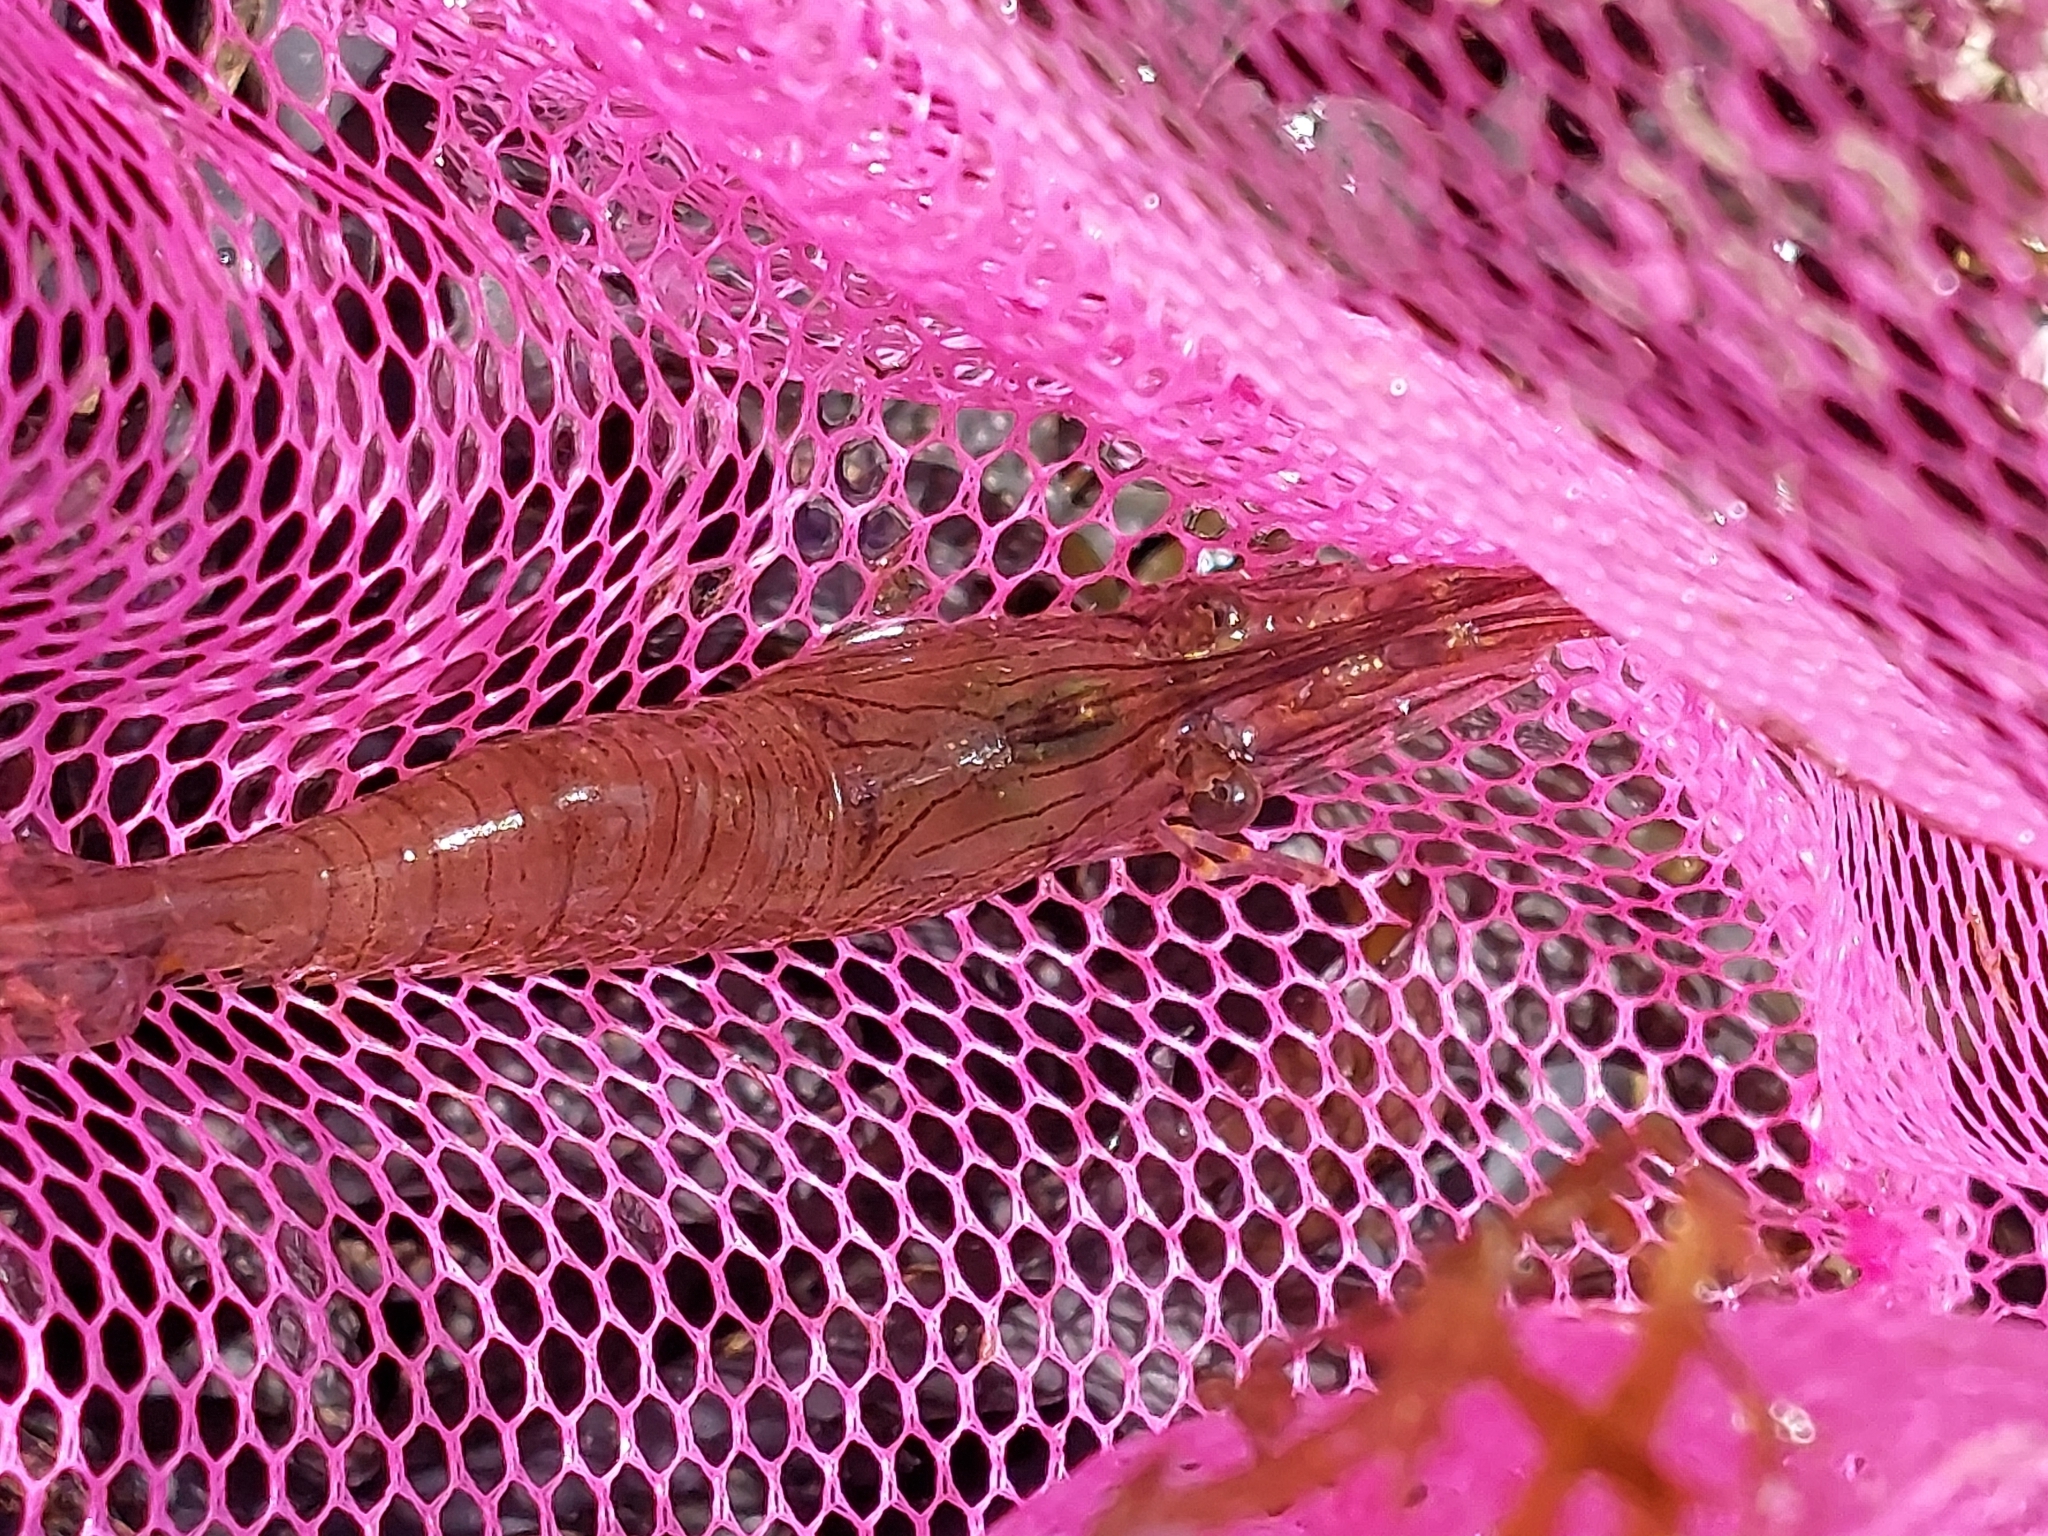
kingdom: Animalia
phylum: Arthropoda
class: Malacostraca
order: Decapoda
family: Palaemonidae
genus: Palaemon
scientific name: Palaemon serratus
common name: Common prawn
